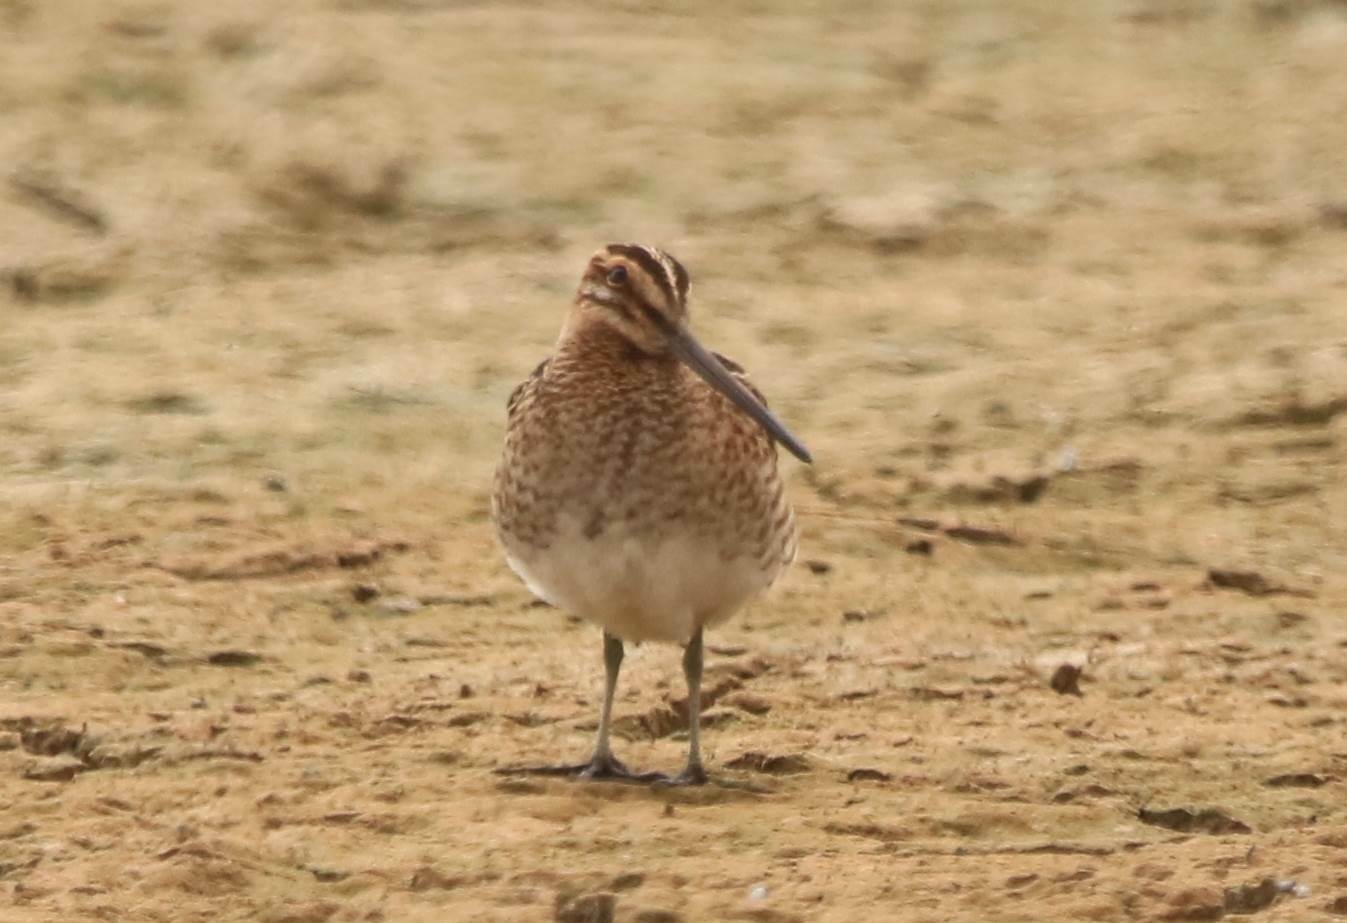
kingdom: Animalia
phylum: Chordata
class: Aves
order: Charadriiformes
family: Scolopacidae
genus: Gallinago
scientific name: Gallinago gallinago
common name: Common snipe
